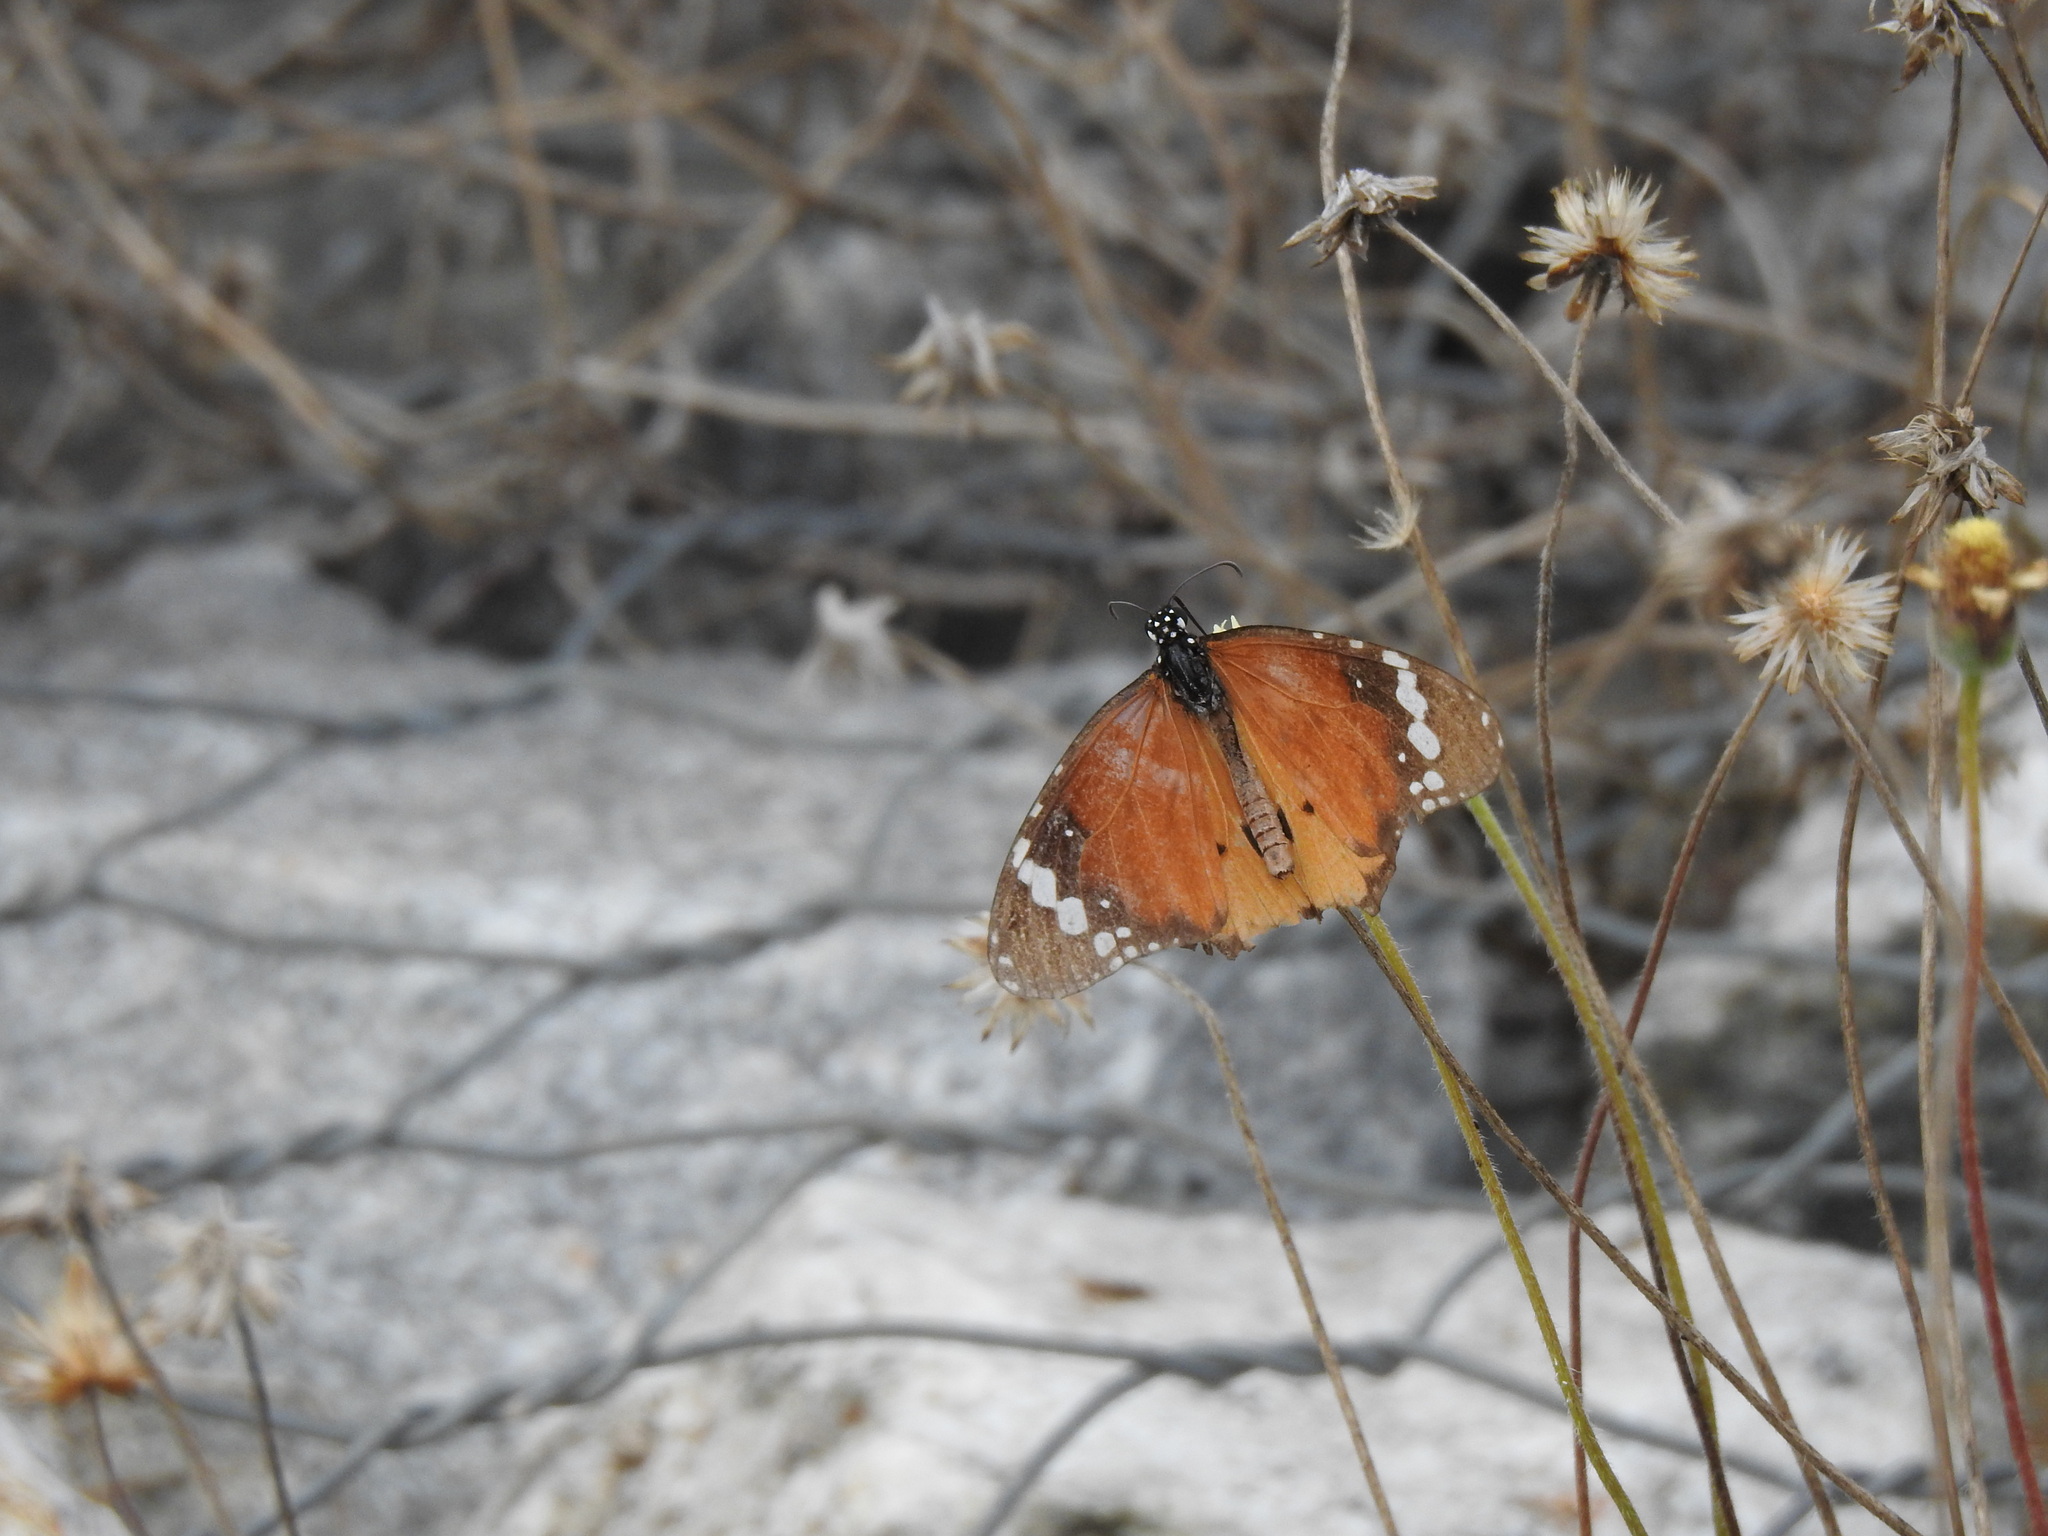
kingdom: Animalia
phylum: Arthropoda
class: Insecta
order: Lepidoptera
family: Nymphalidae
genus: Danaus
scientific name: Danaus chrysippus
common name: Plain tiger
